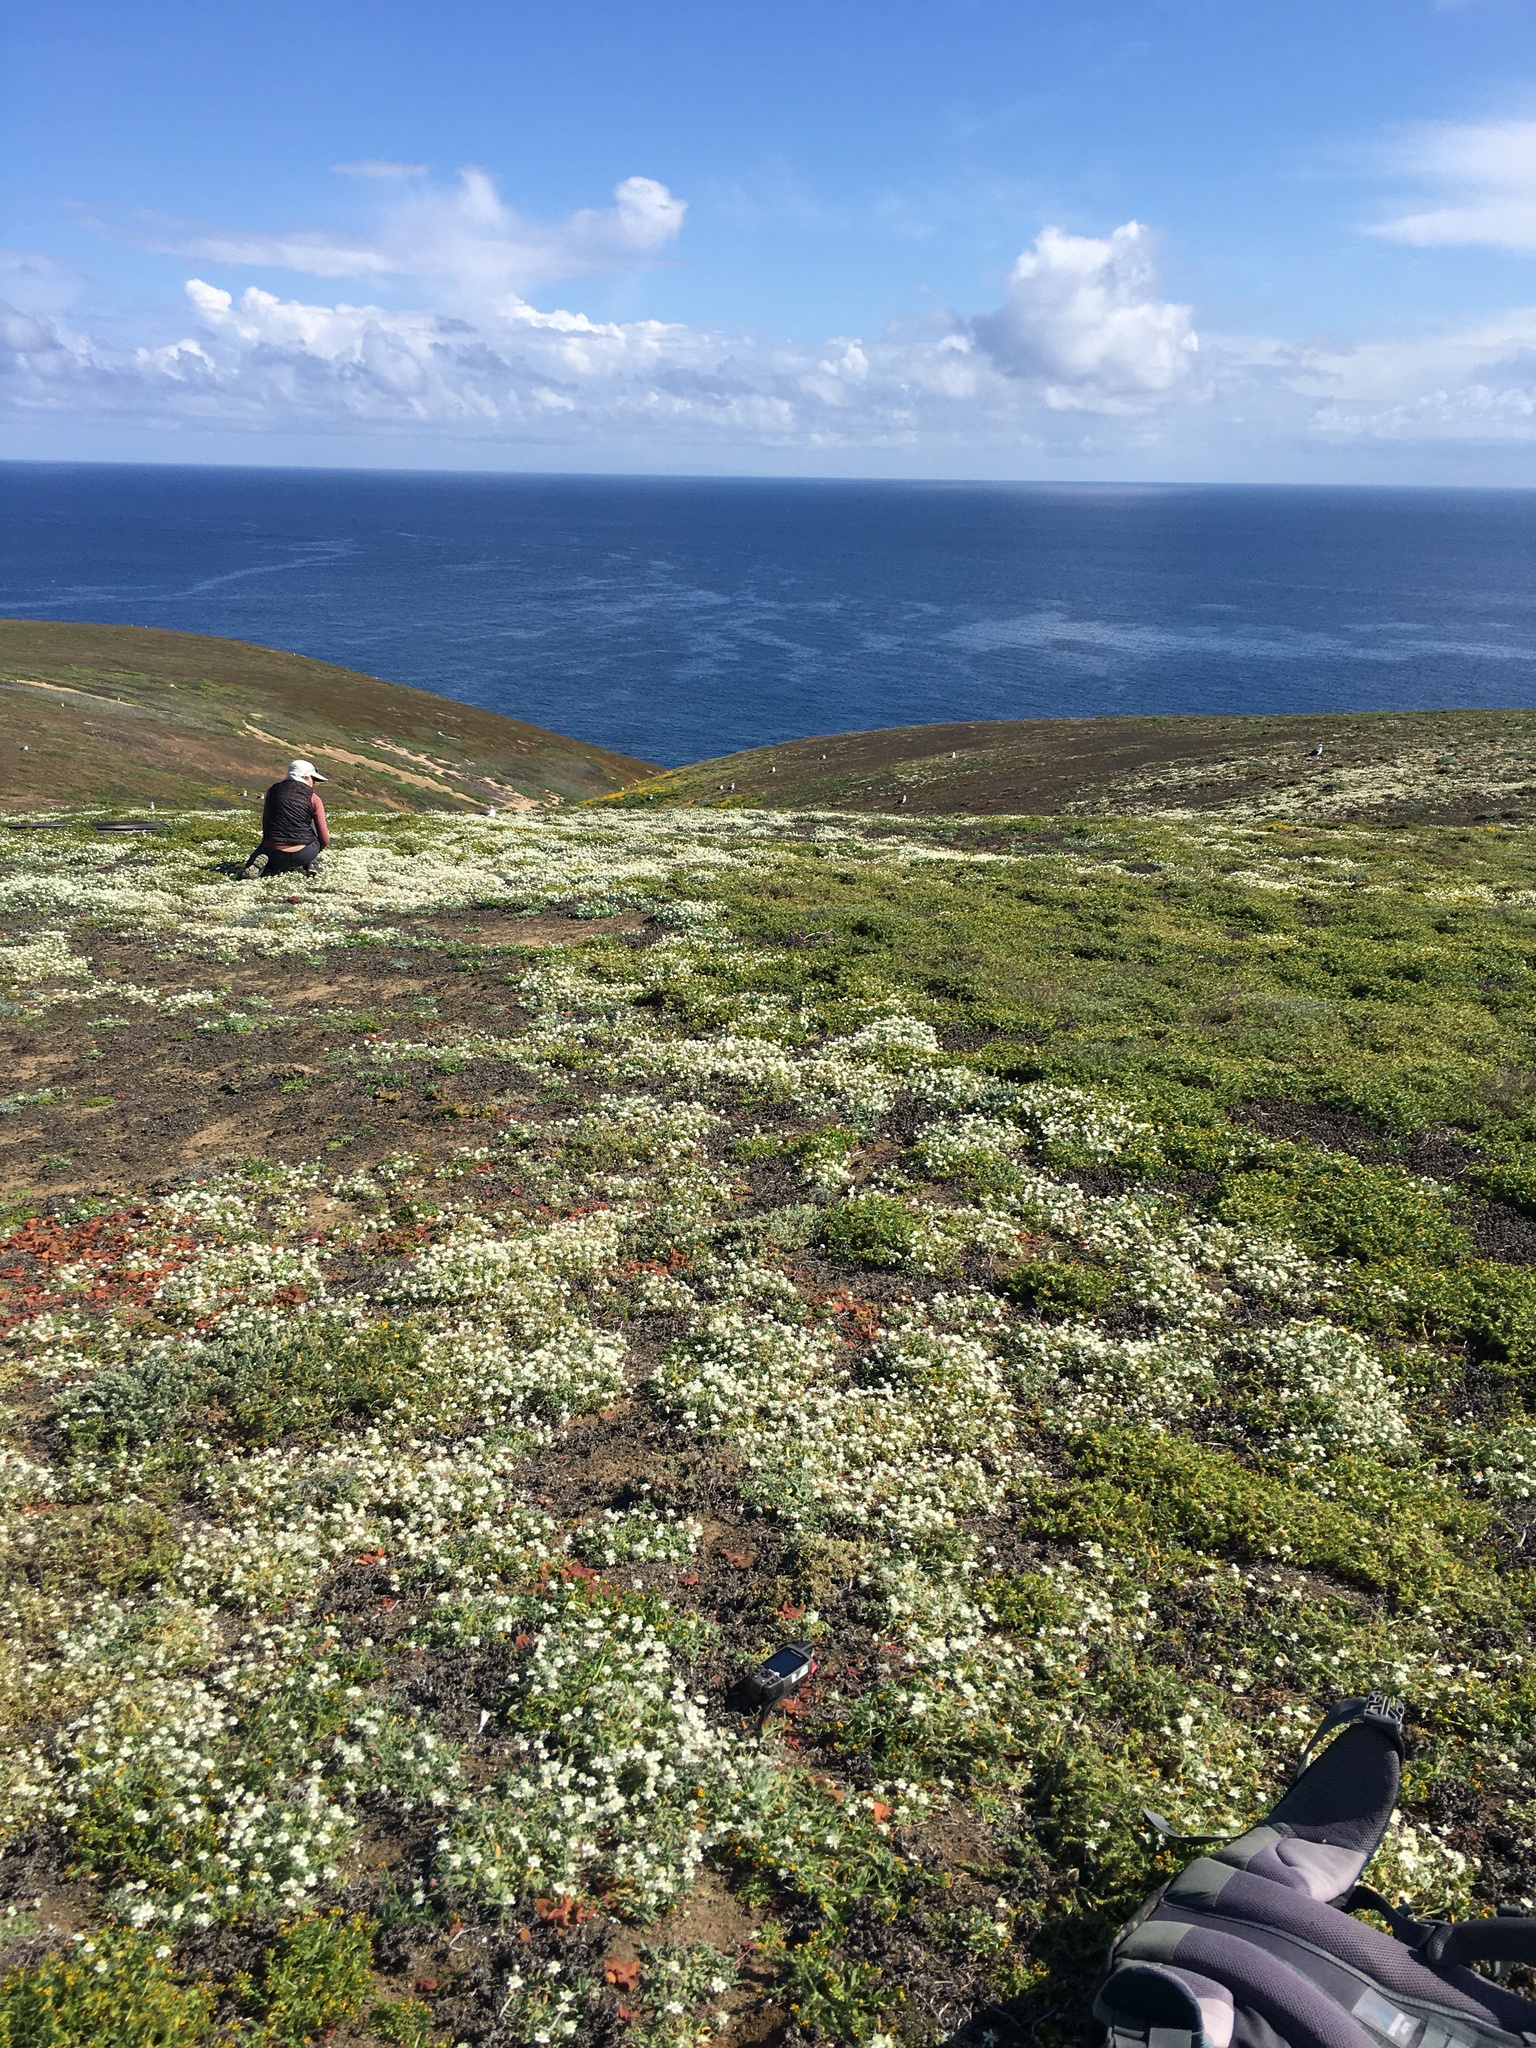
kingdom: Plantae
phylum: Tracheophyta
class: Magnoliopsida
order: Ranunculales
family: Papaveraceae
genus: Platystemon
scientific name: Platystemon californicus
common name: Cream-cups
